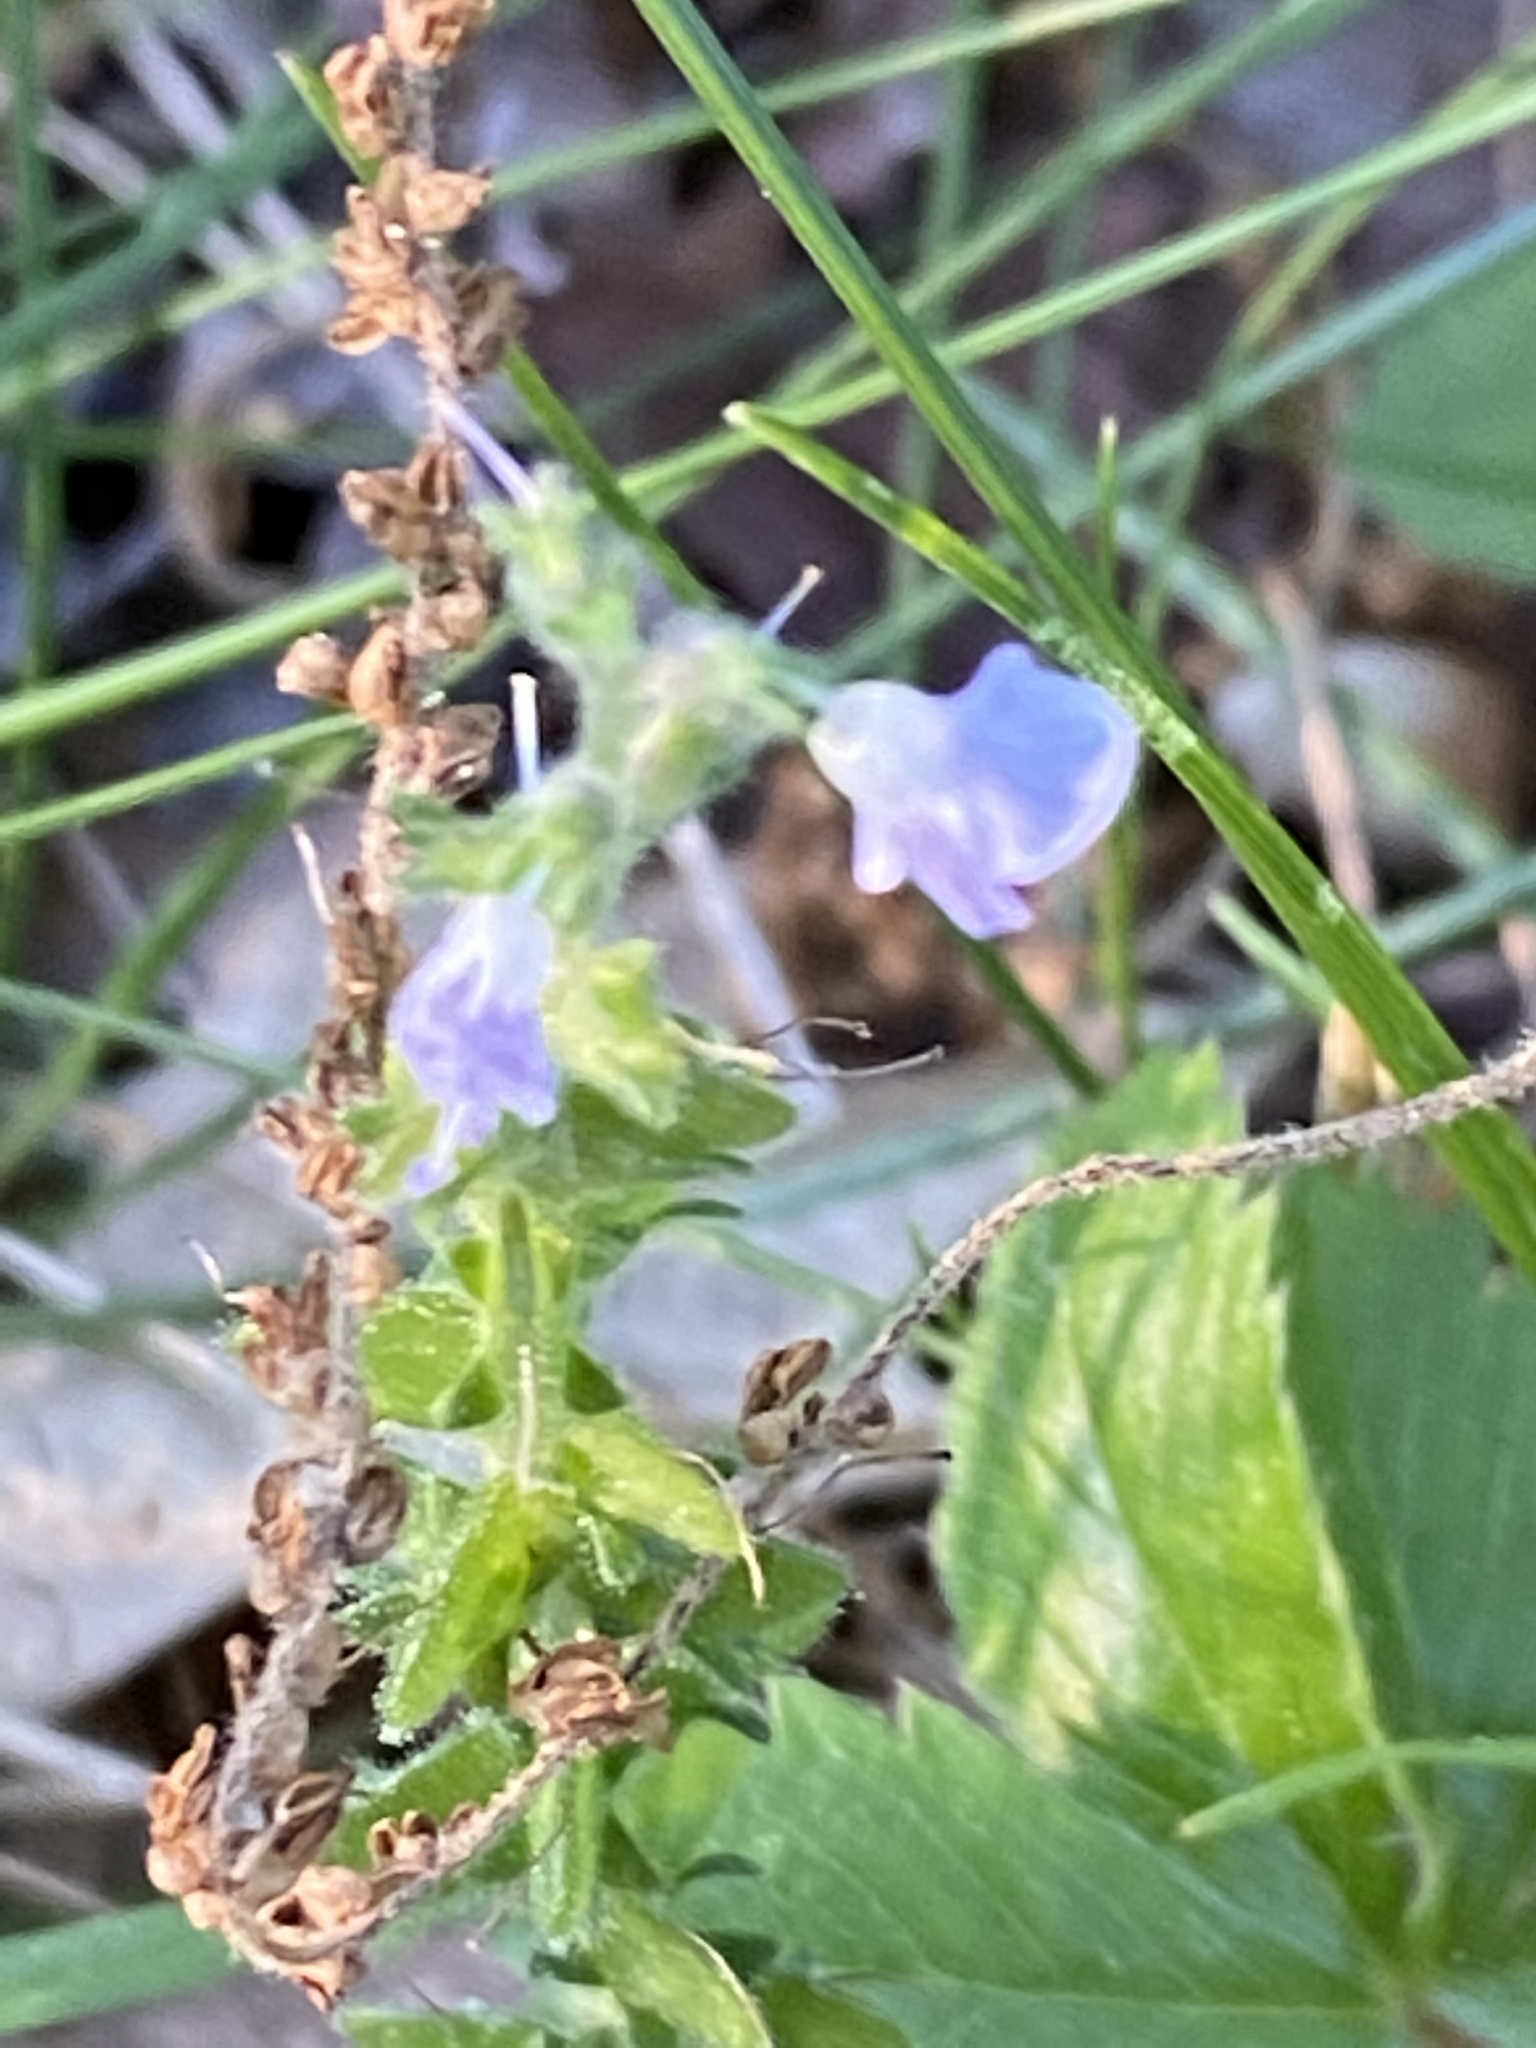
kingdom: Plantae
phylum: Tracheophyta
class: Magnoliopsida
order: Lamiales
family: Plantaginaceae
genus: Veronica
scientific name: Veronica officinalis
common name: Common speedwell
